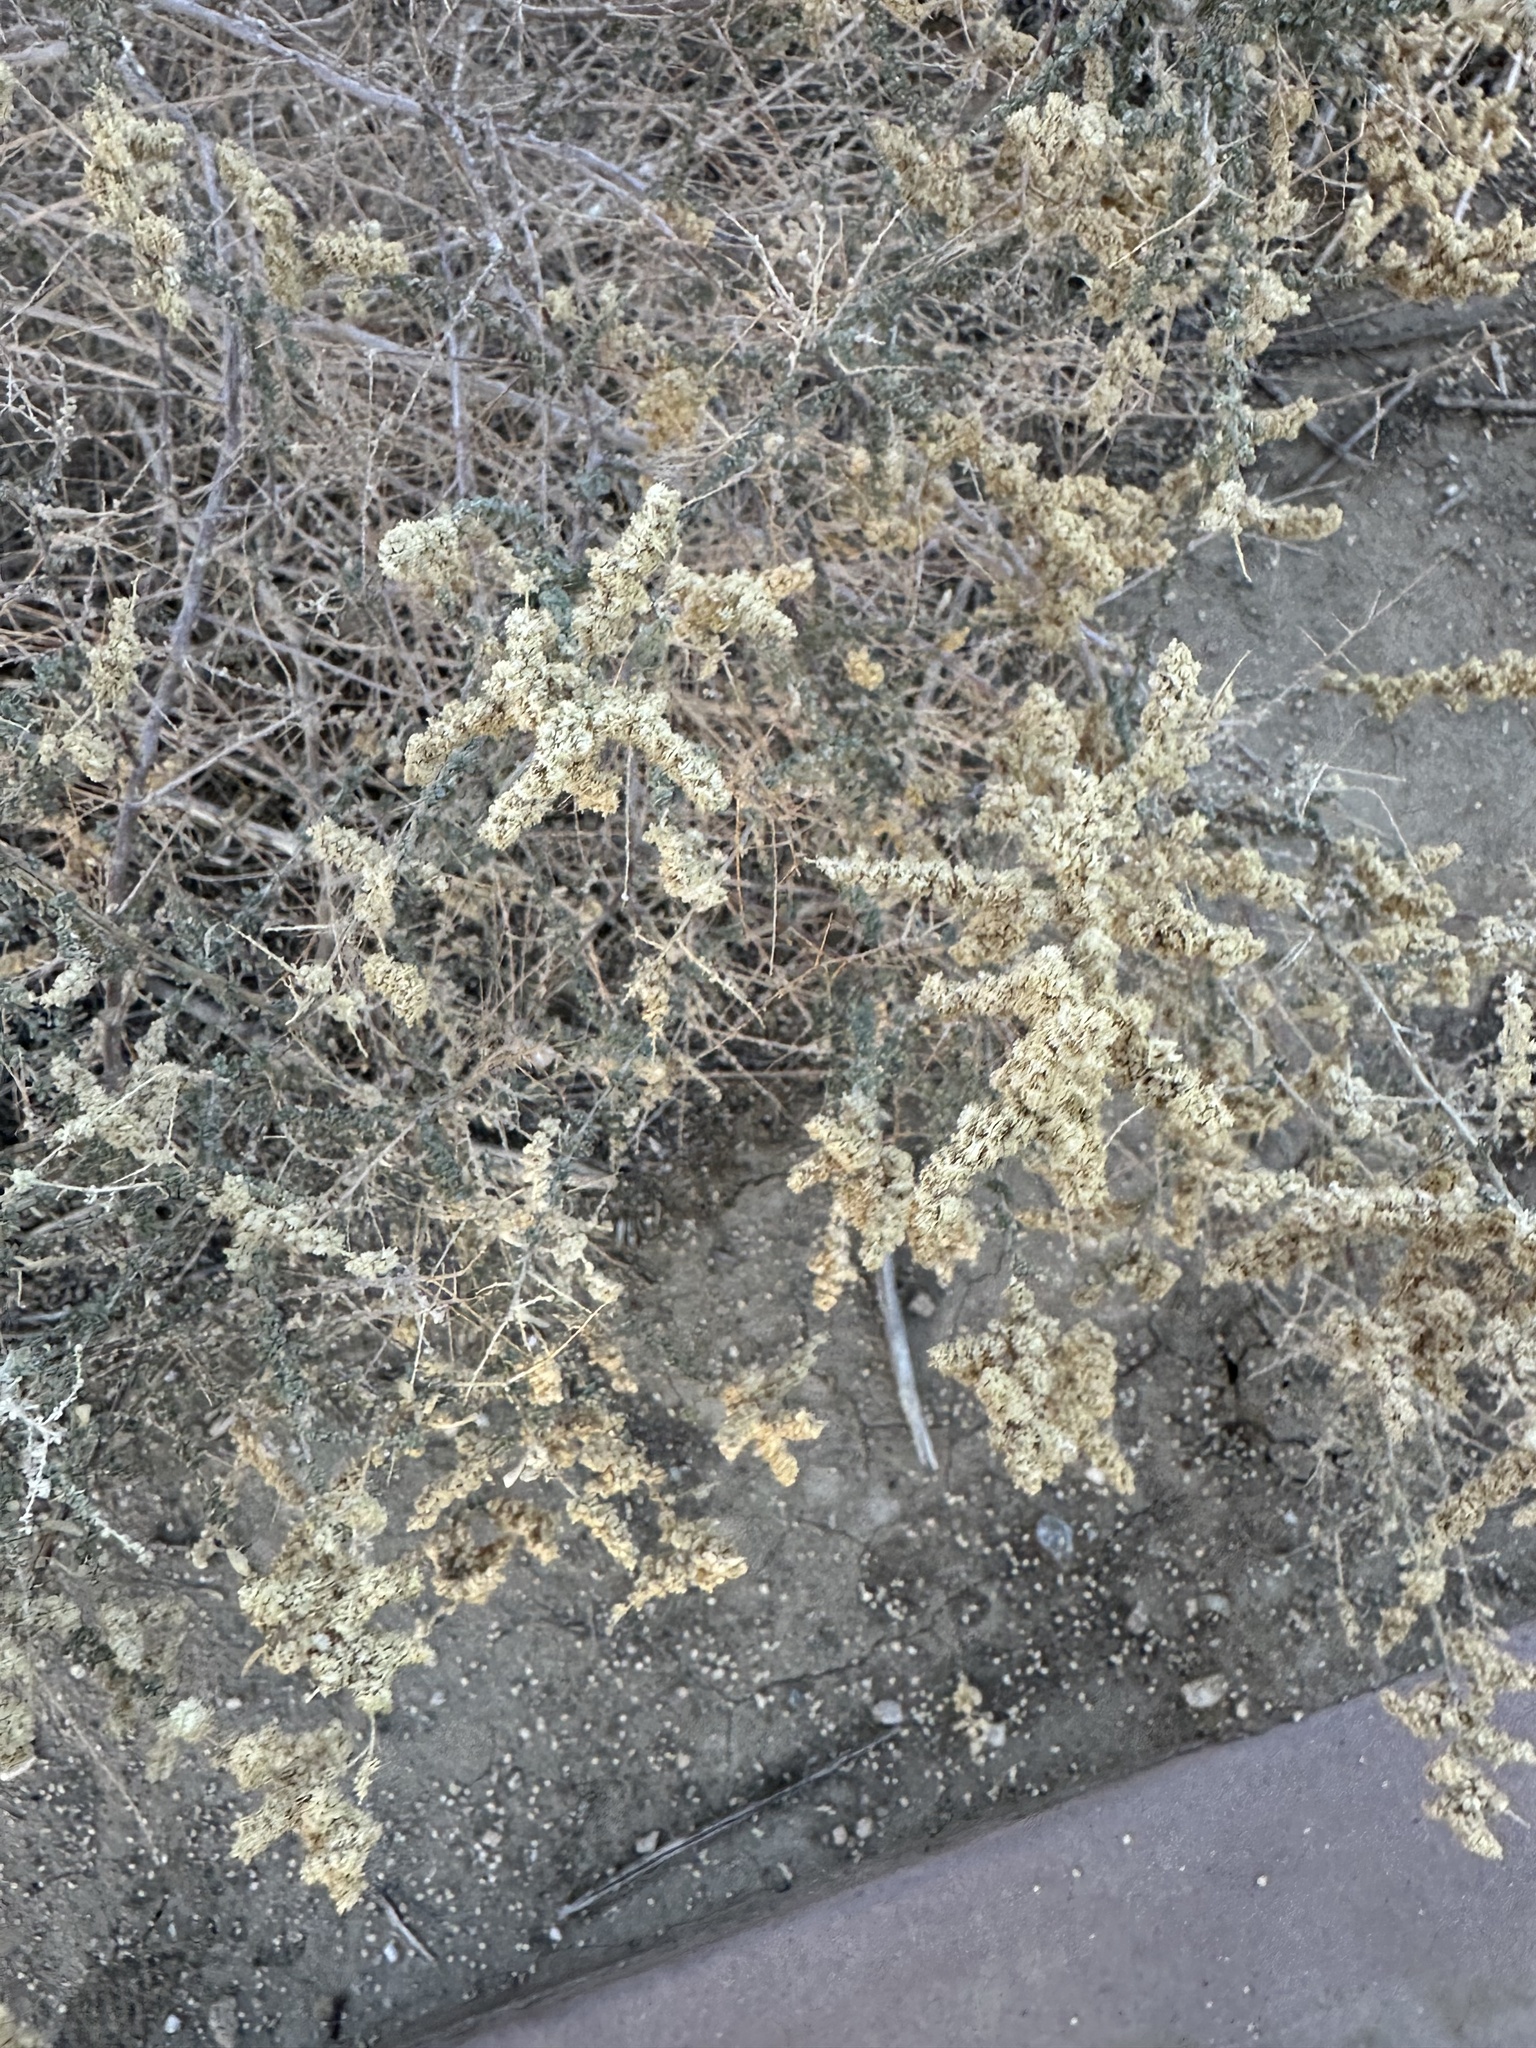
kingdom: Plantae
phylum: Tracheophyta
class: Magnoliopsida
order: Caryophyllales
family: Amaranthaceae
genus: Atriplex
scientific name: Atriplex polycarpa
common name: Desert saltbush
